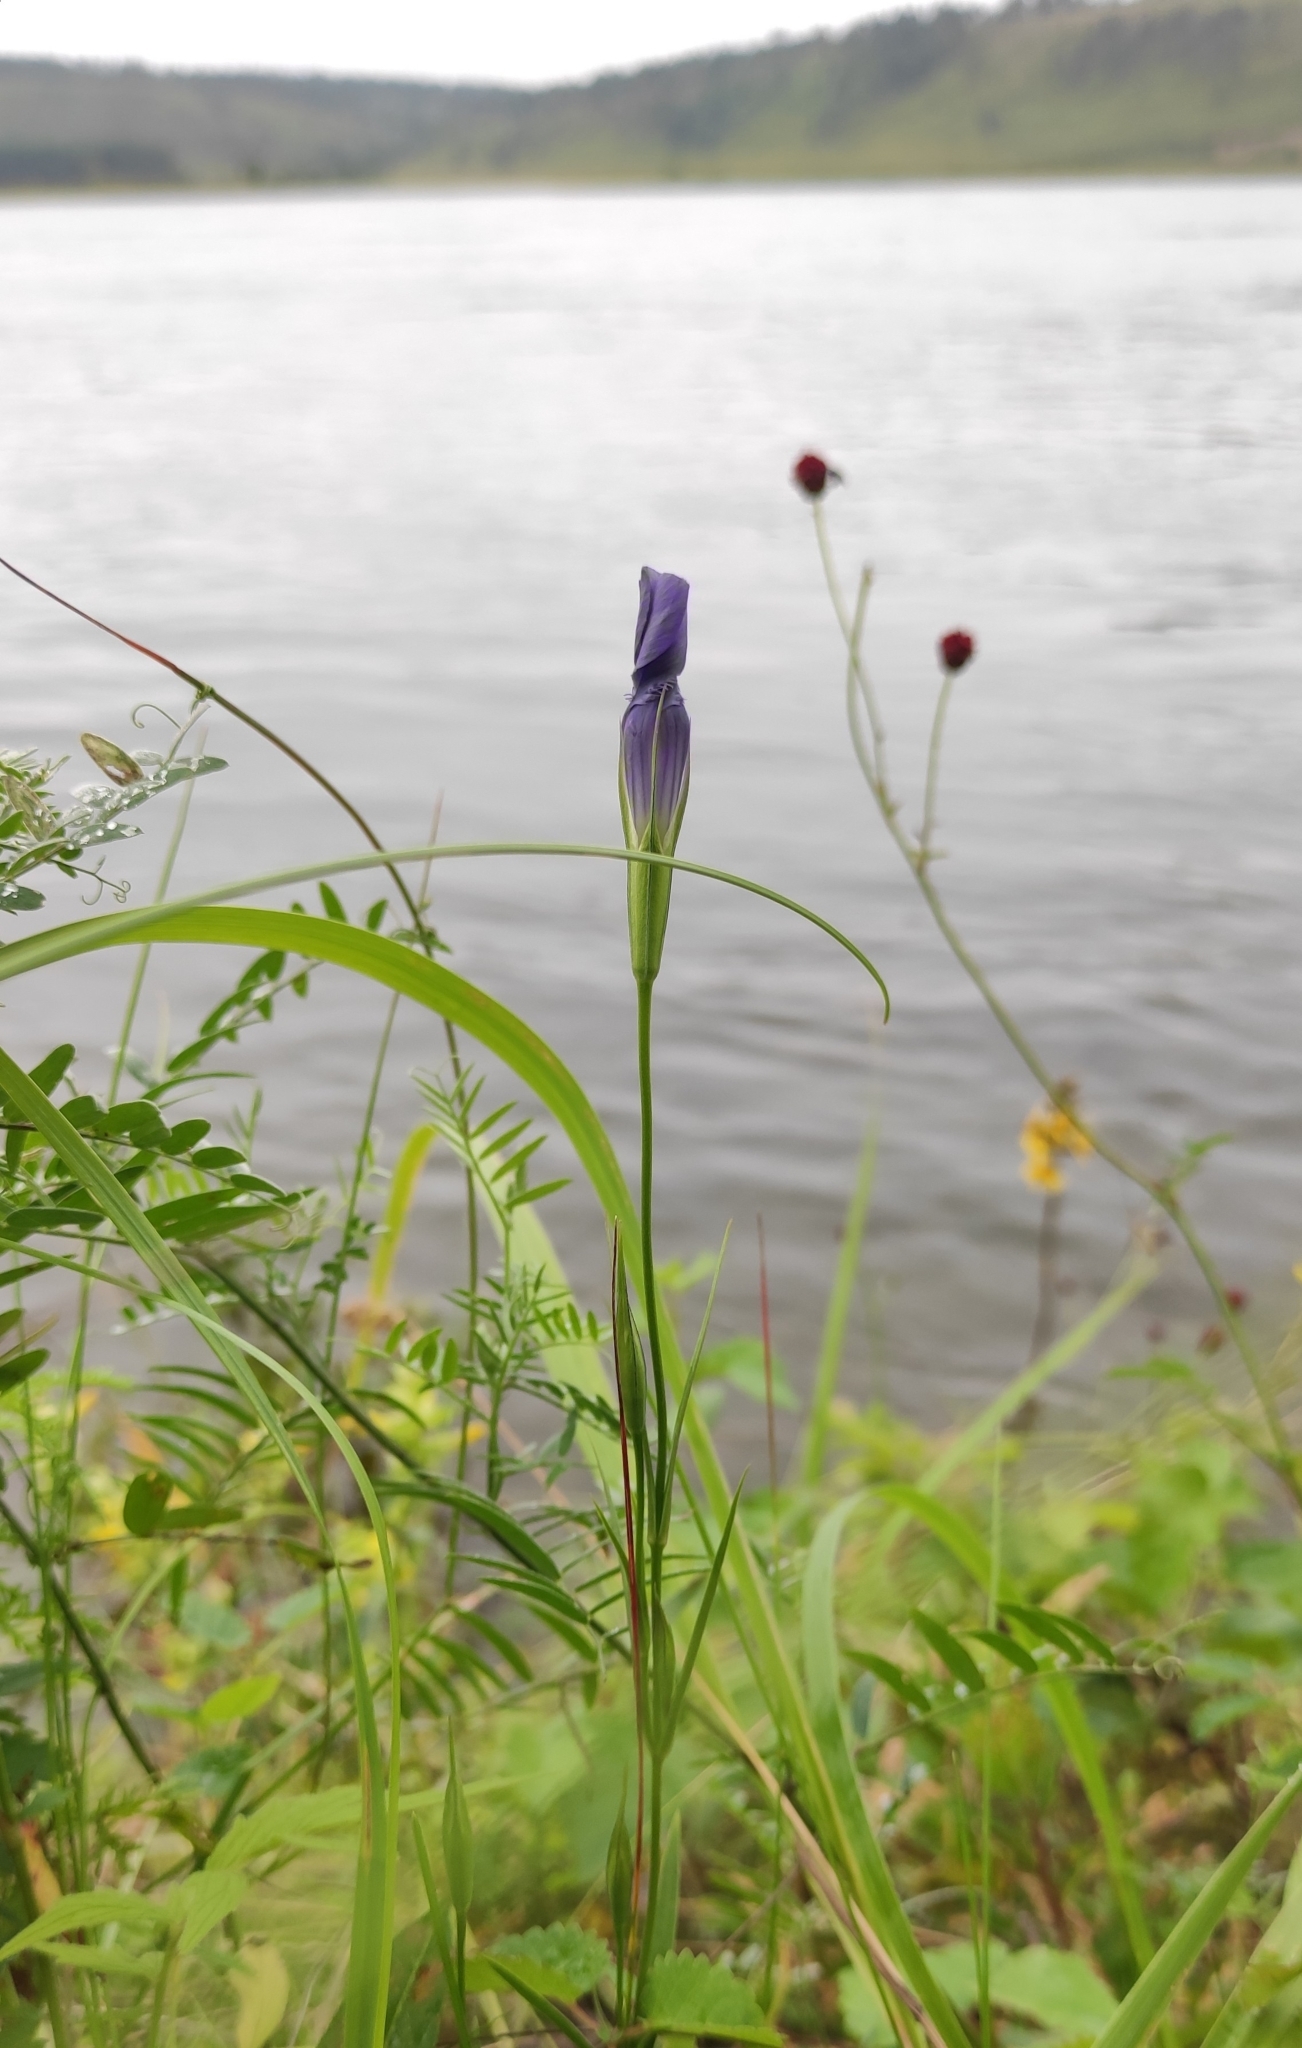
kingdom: Plantae
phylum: Tracheophyta
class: Magnoliopsida
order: Gentianales
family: Gentianaceae
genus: Gentianopsis
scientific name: Gentianopsis barbata
